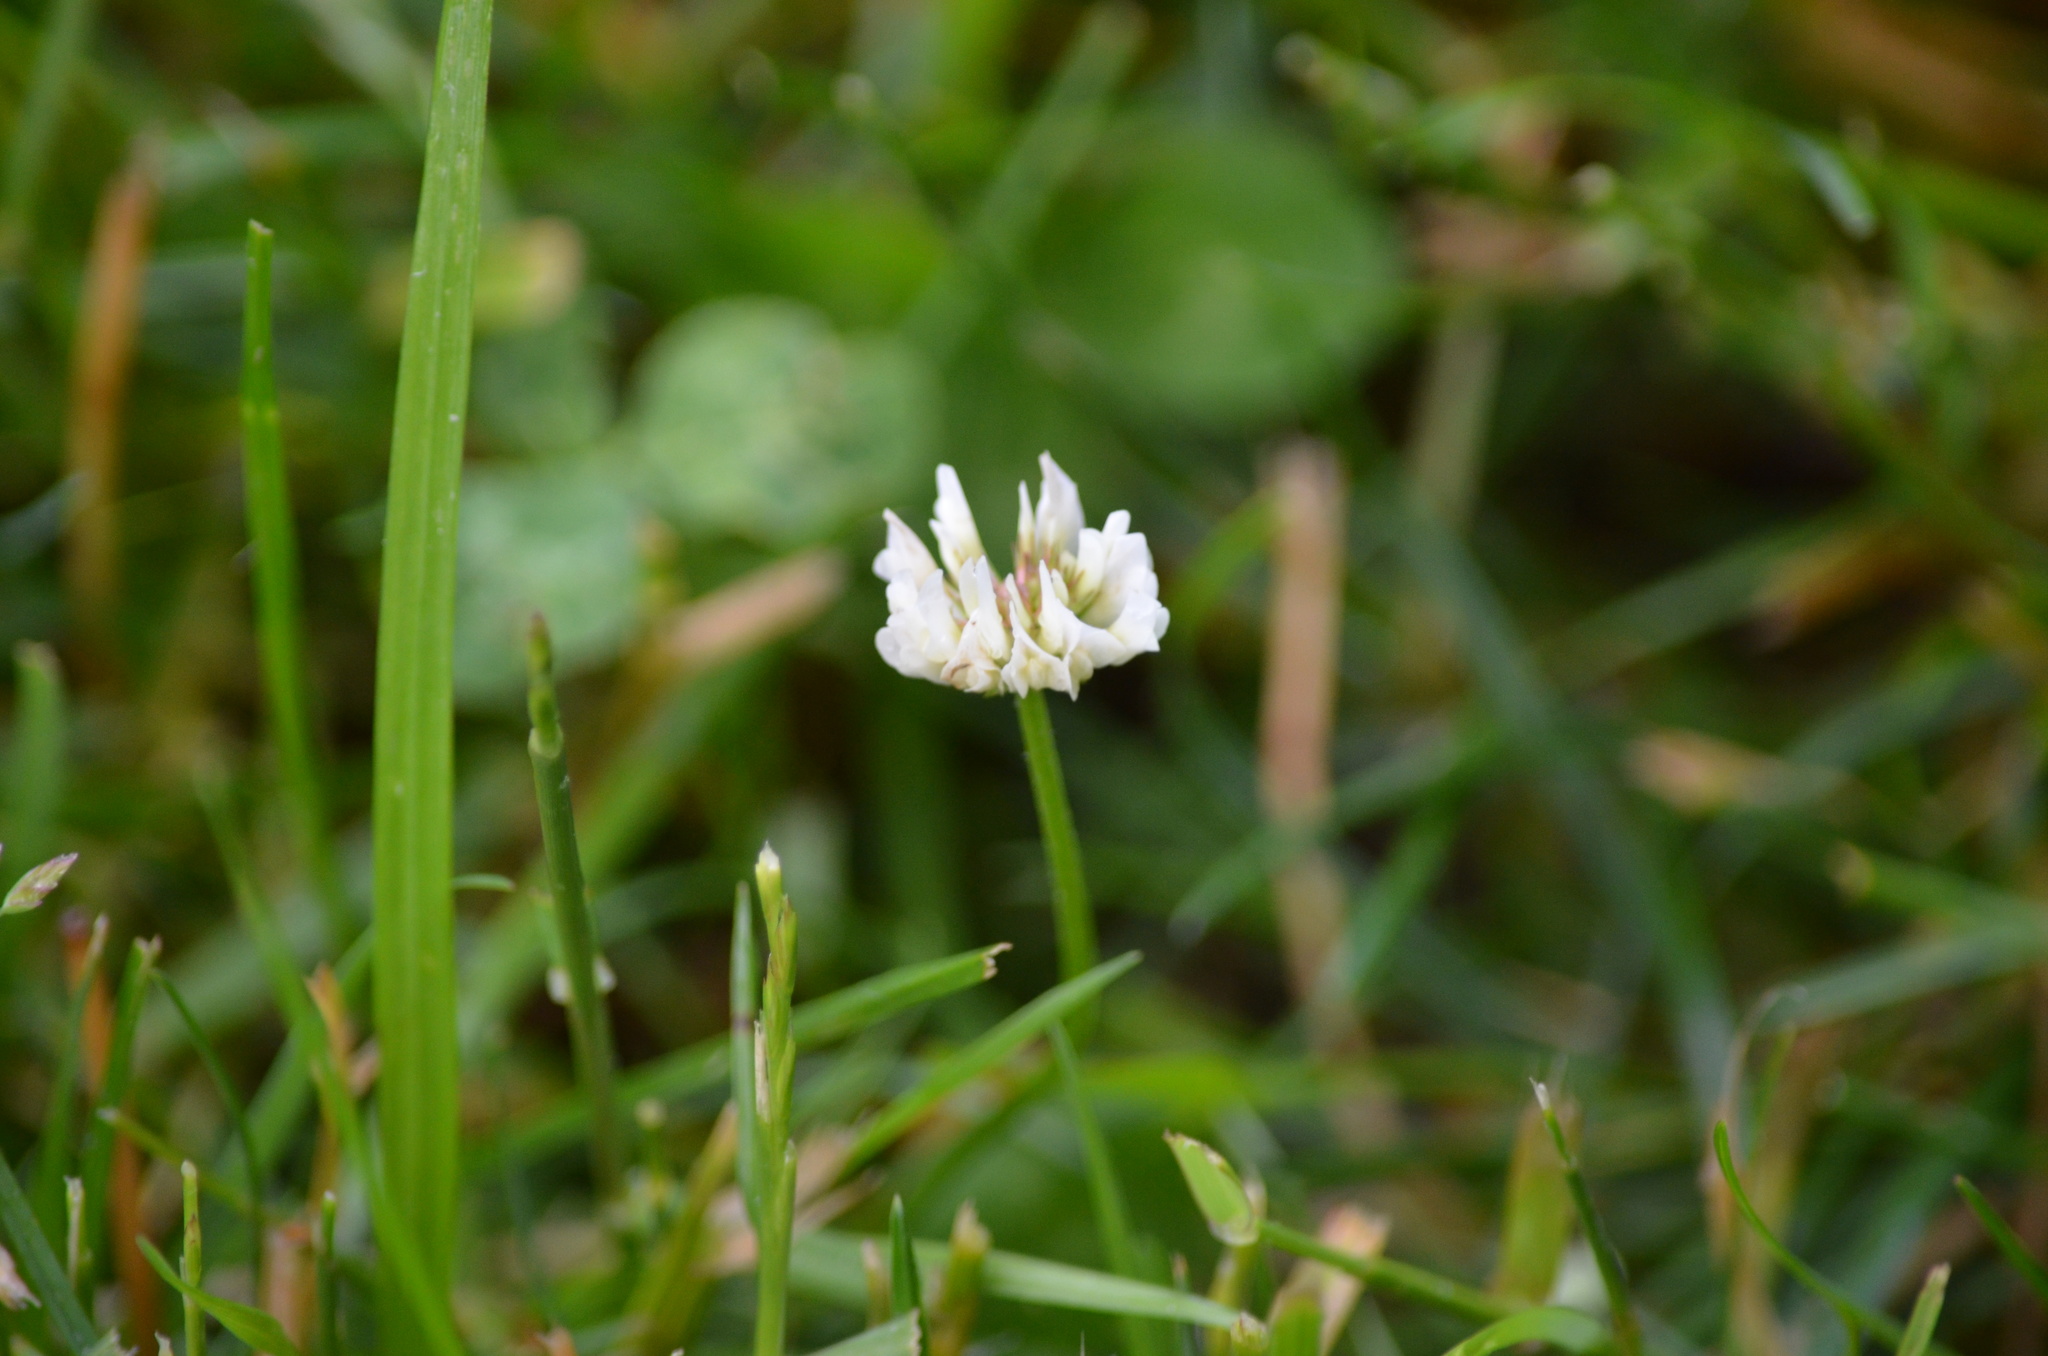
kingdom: Plantae
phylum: Tracheophyta
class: Magnoliopsida
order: Fabales
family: Fabaceae
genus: Trifolium
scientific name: Trifolium repens
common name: White clover
